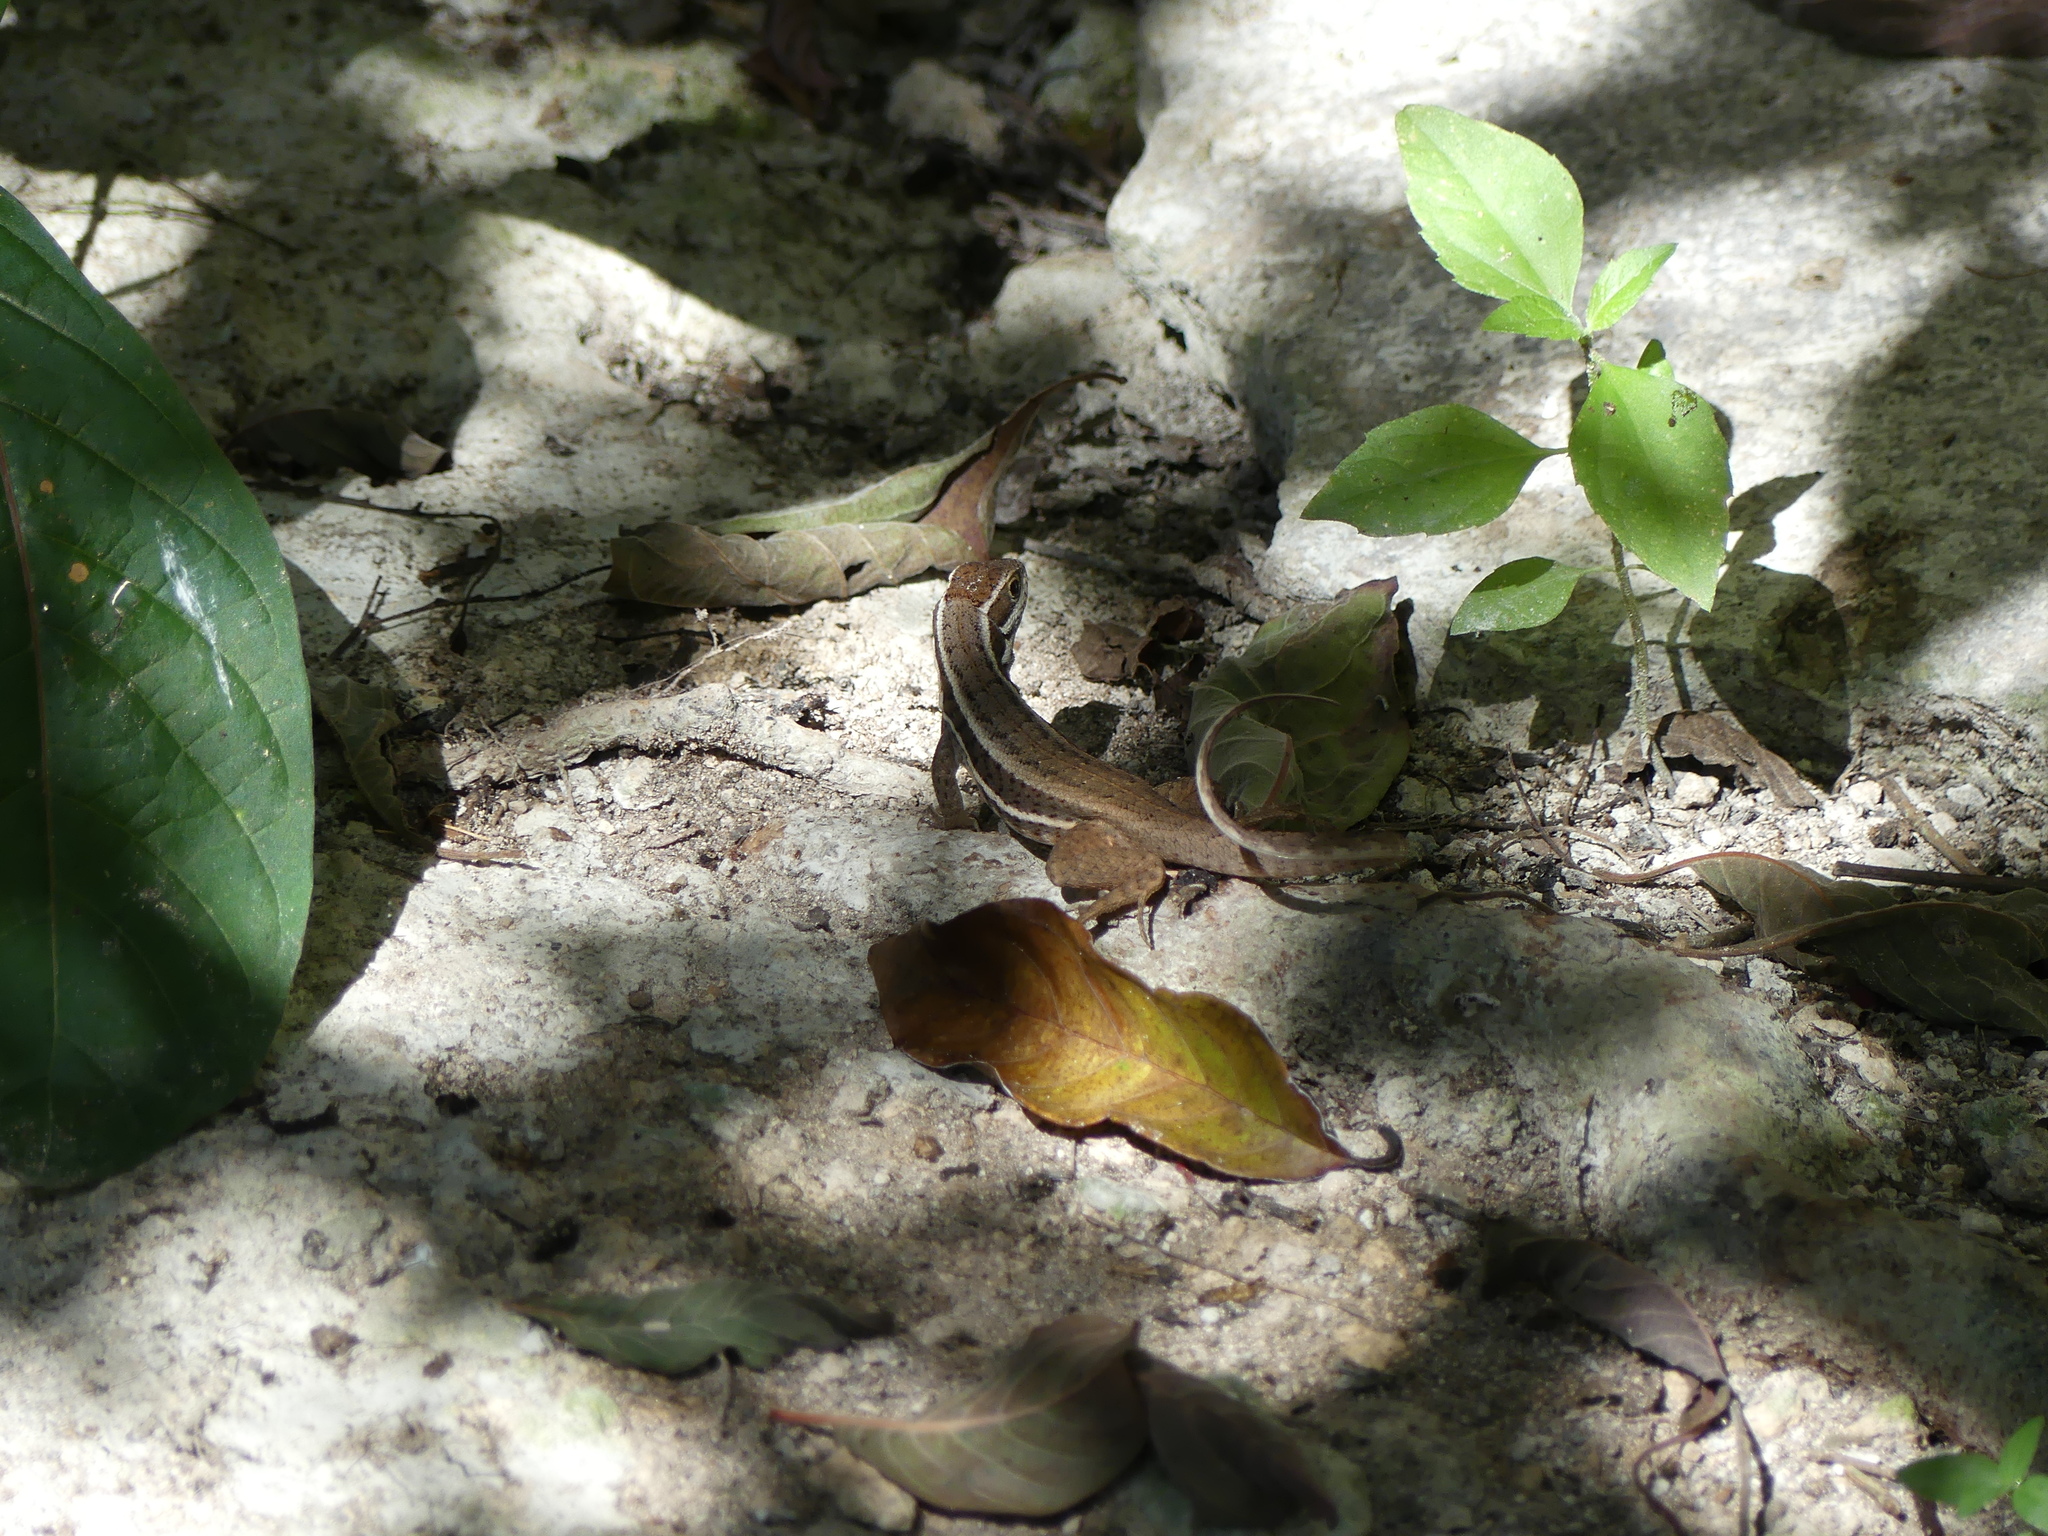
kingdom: Animalia
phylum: Chordata
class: Squamata
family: Leiocephalidae
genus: Leiocephalus
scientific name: Leiocephalus cubensis
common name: Cuban curlytail lizard
